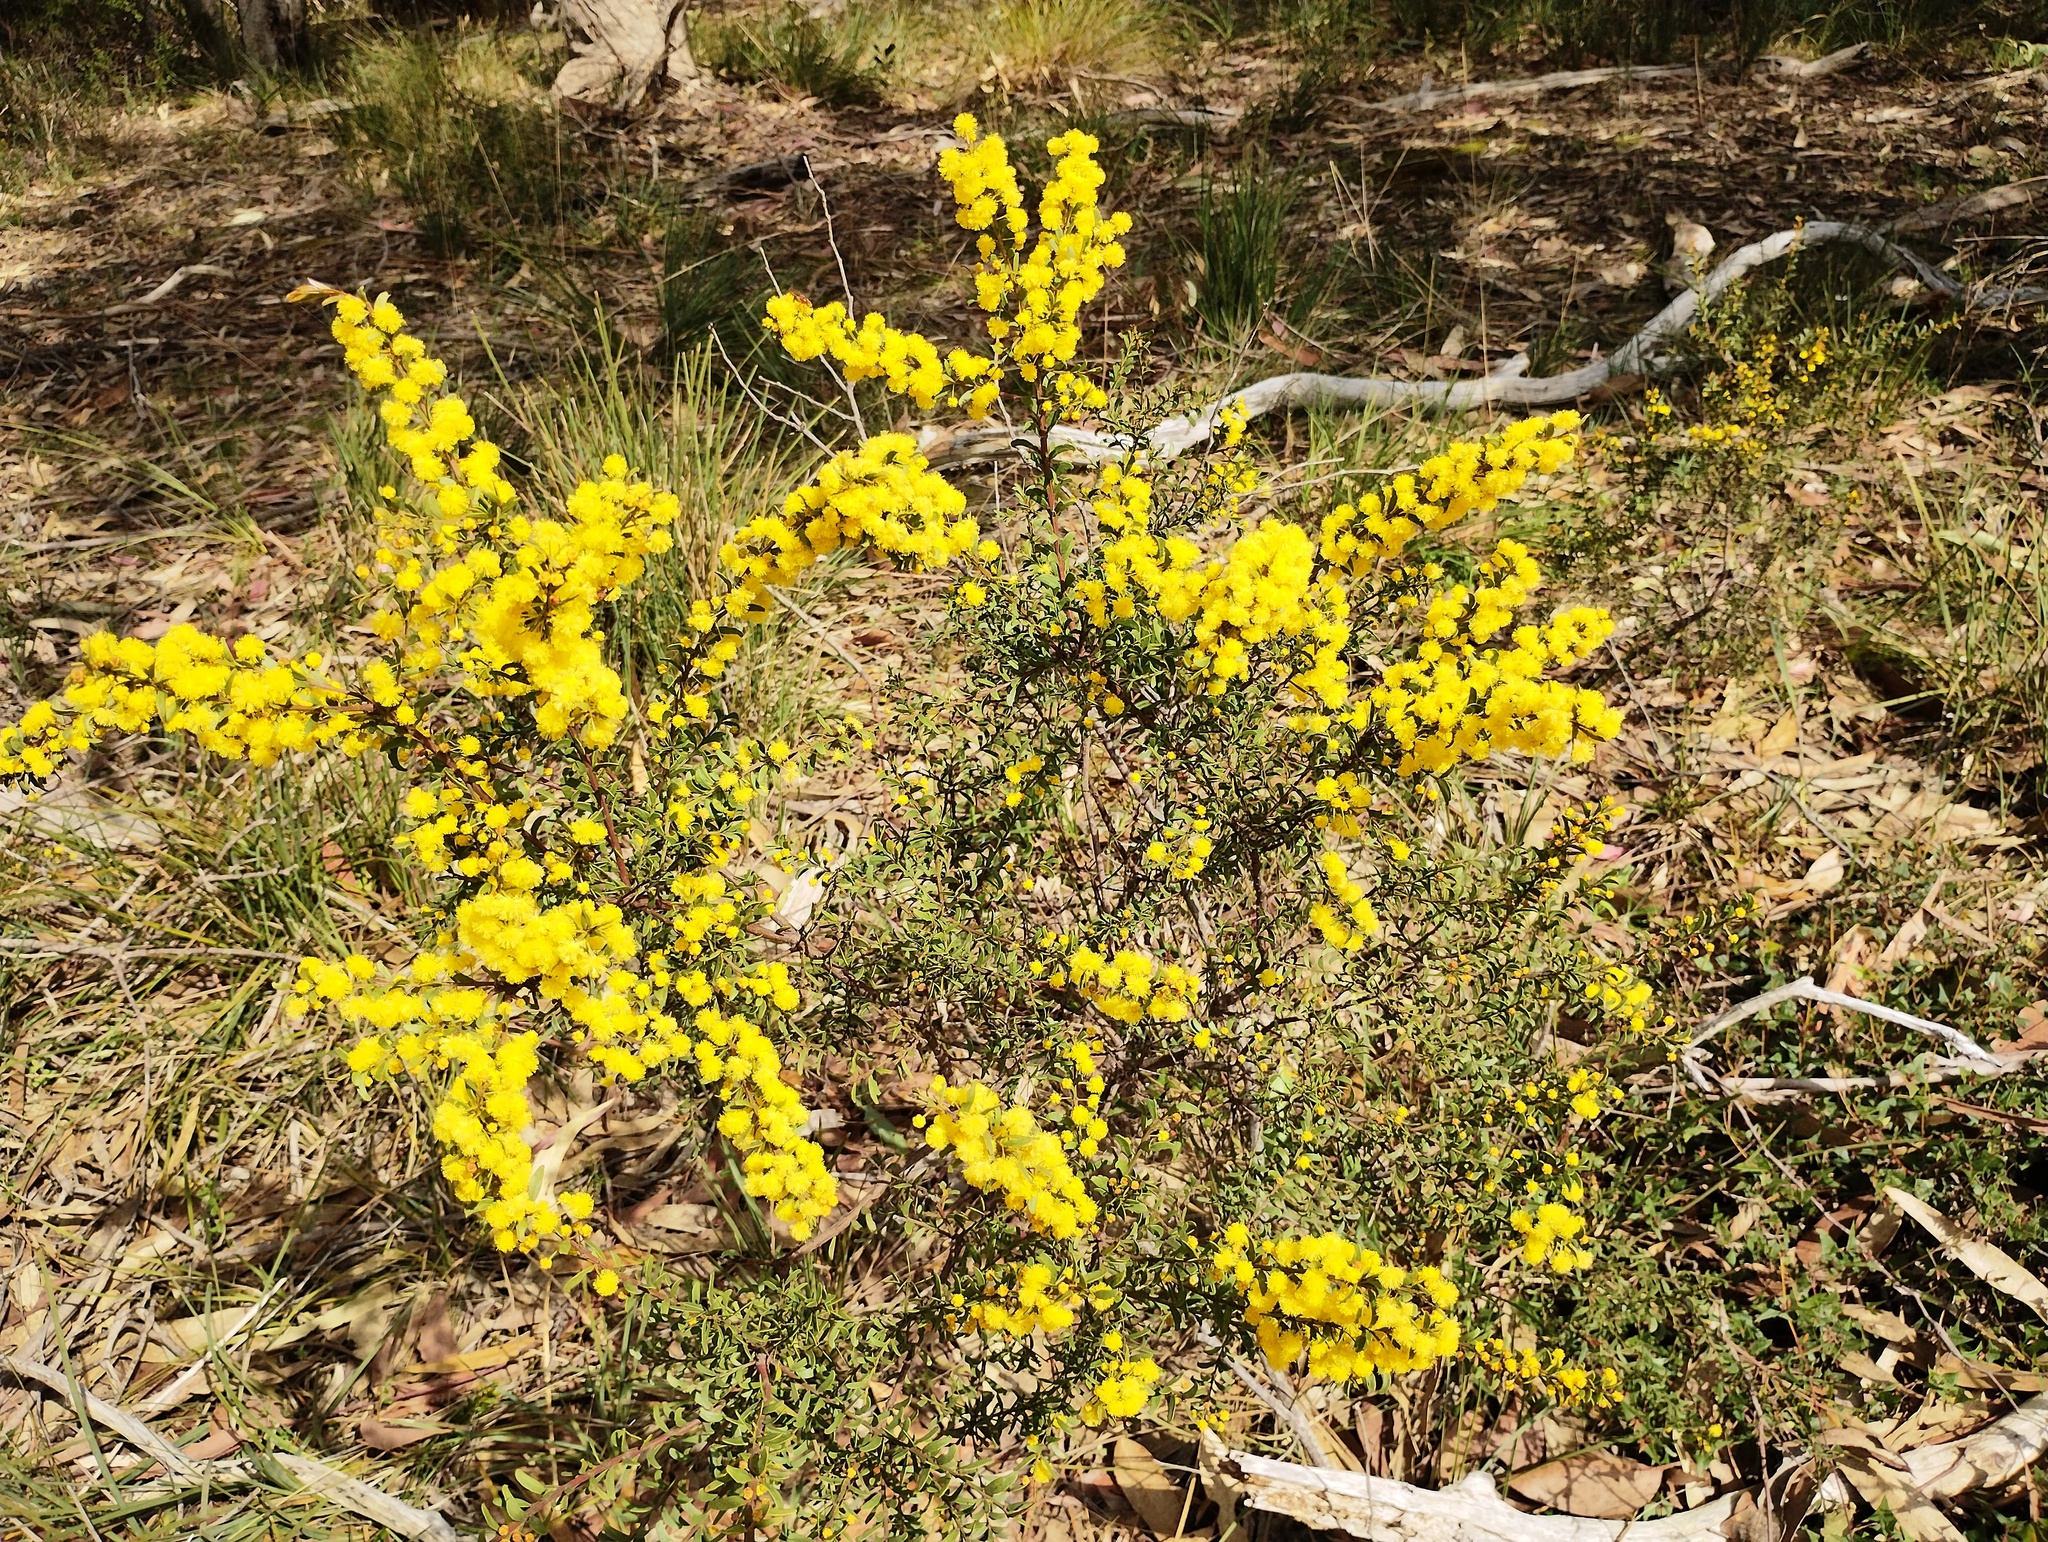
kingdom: Plantae
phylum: Tracheophyta
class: Magnoliopsida
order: Fabales
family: Fabaceae
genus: Acacia
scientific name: Acacia acinacea
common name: Gold-dust acacia
